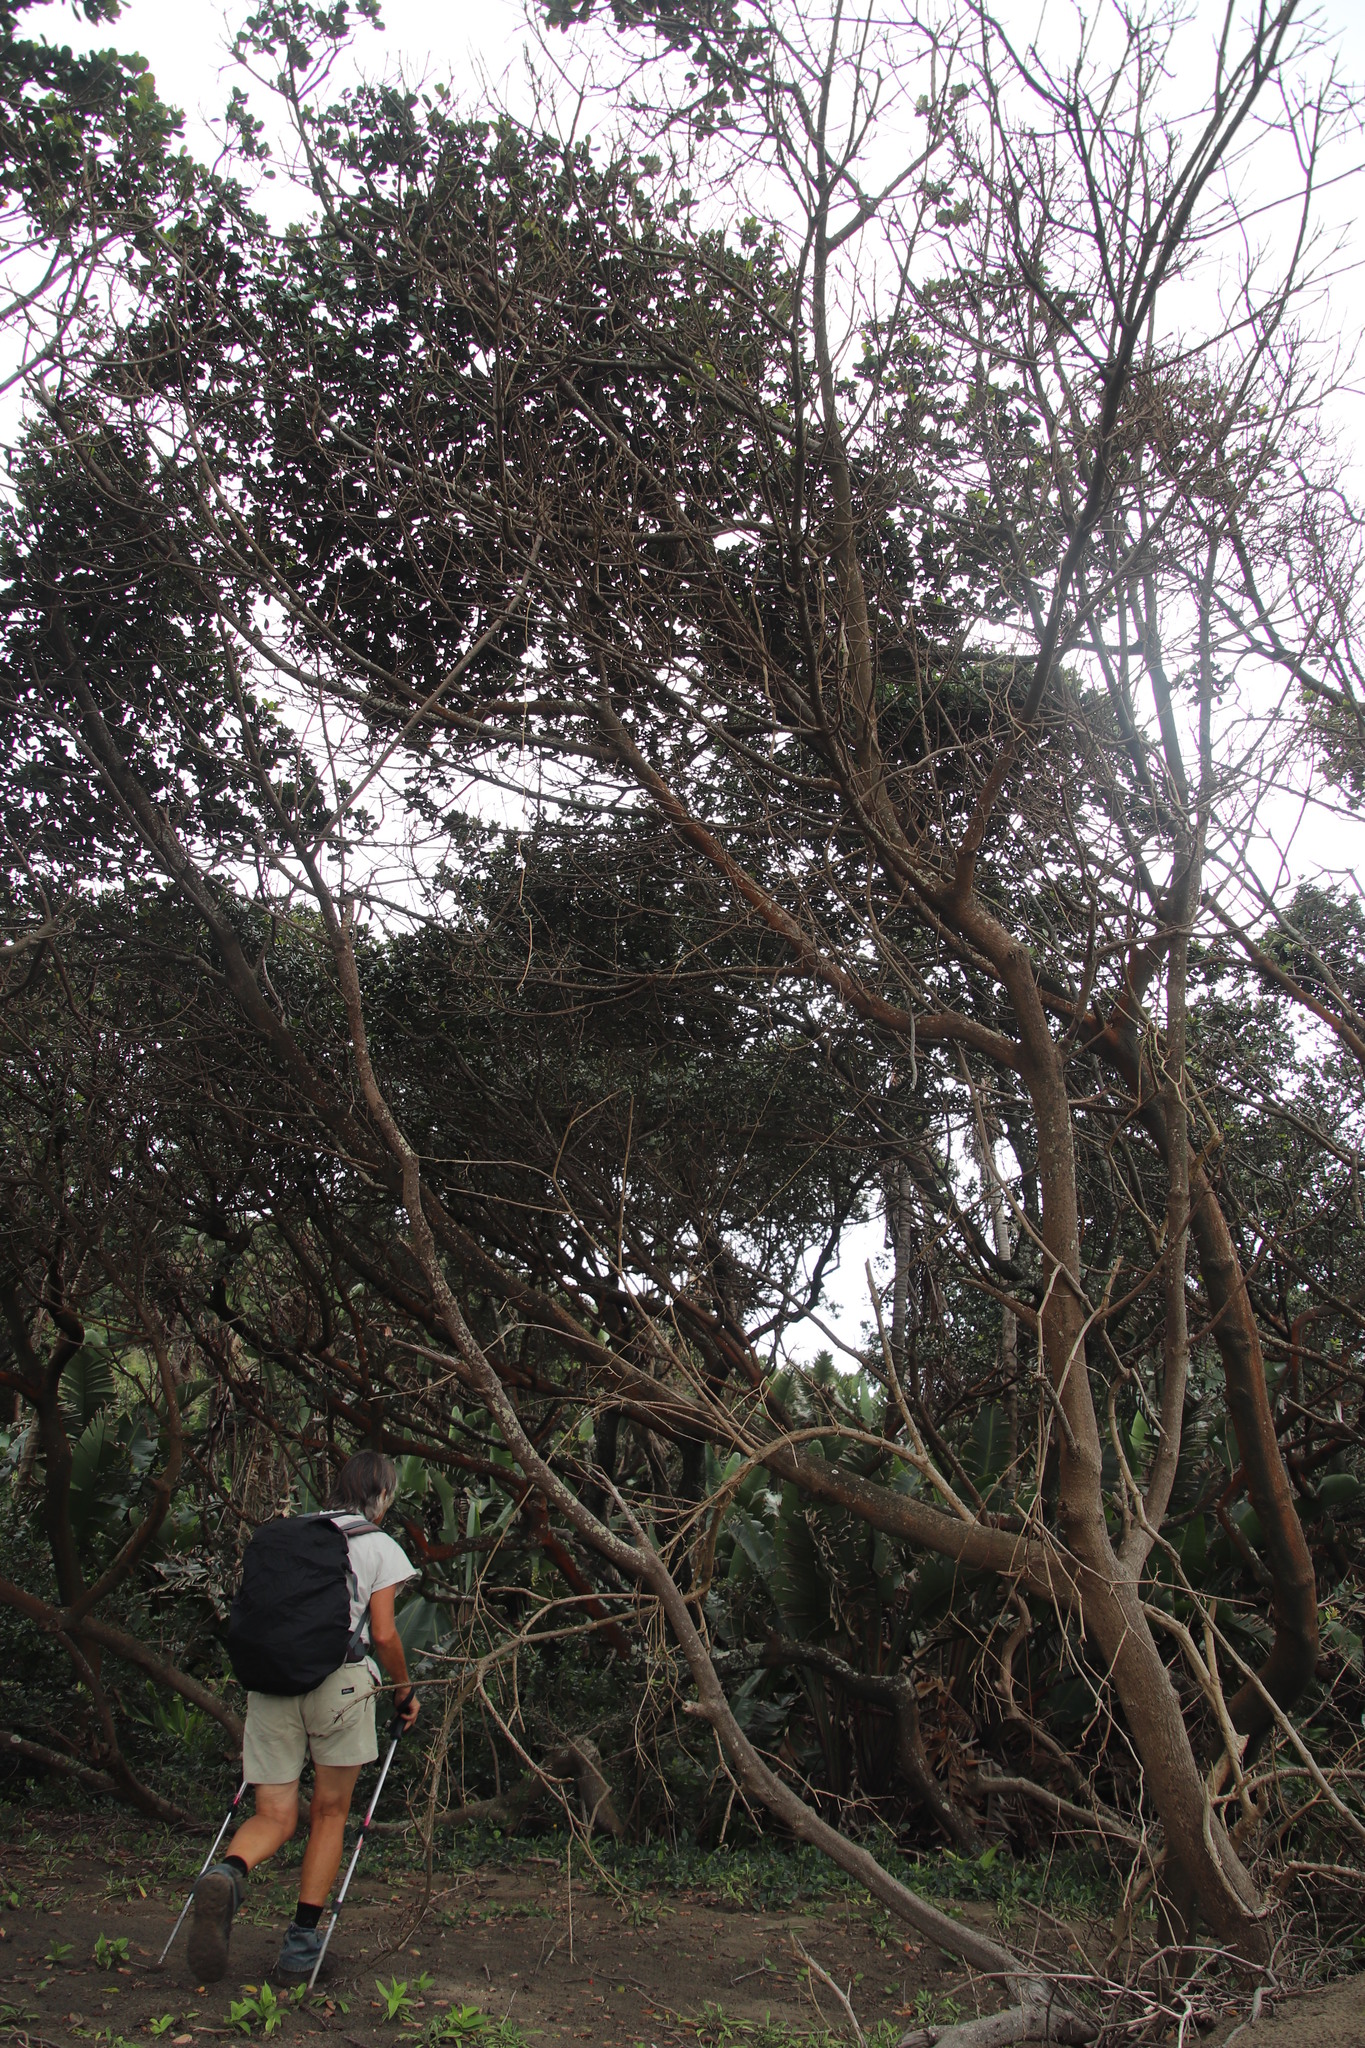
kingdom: Plantae
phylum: Tracheophyta
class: Magnoliopsida
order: Ericales
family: Sapotaceae
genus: Mimusops
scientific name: Mimusops caffra
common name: Coastal red milkwood
